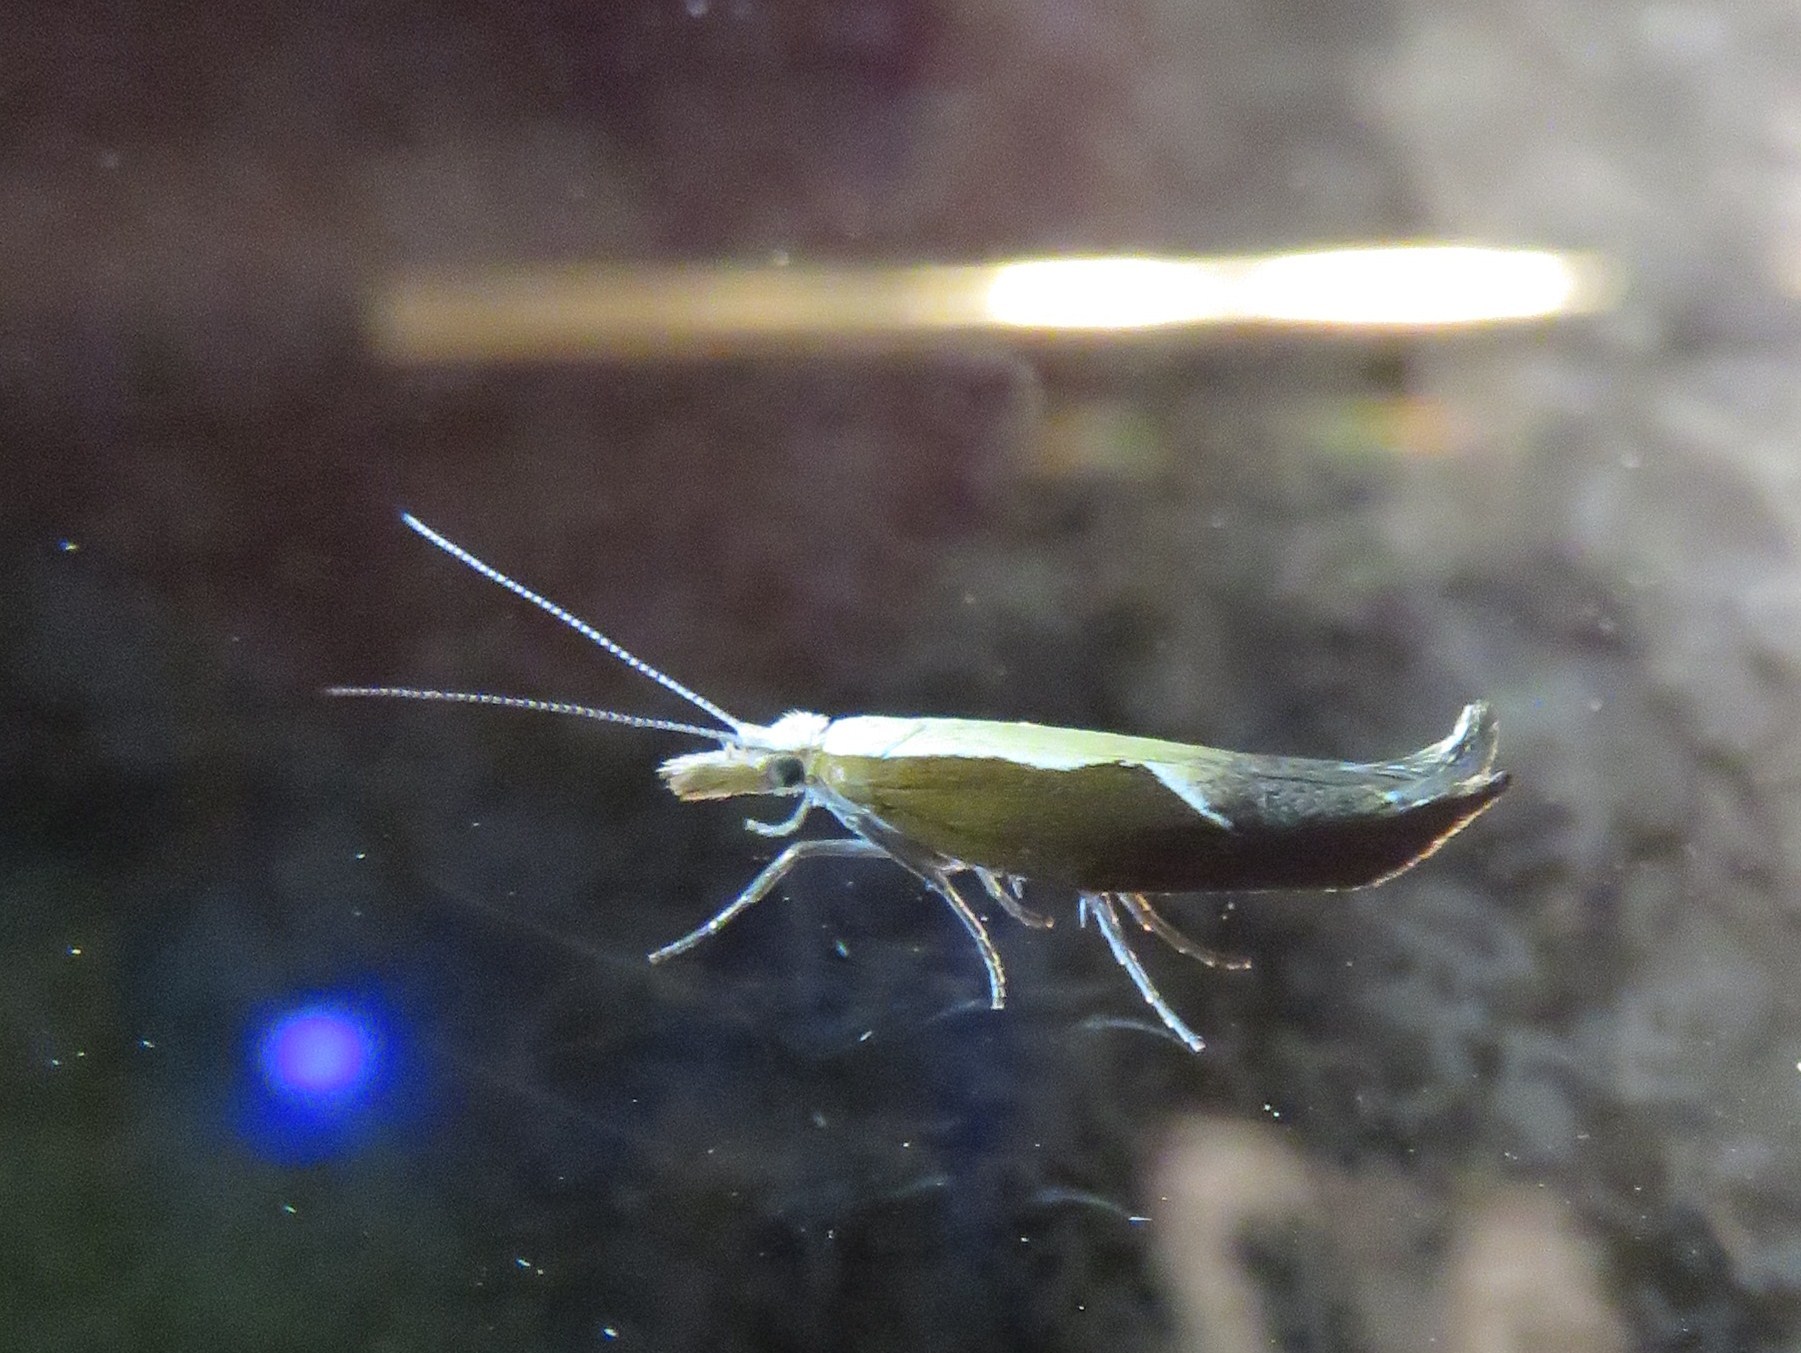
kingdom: Animalia
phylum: Arthropoda
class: Insecta
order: Lepidoptera
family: Ypsolophidae
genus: Ypsolopha
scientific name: Ypsolopha dentella
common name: Honeysuckle moth
